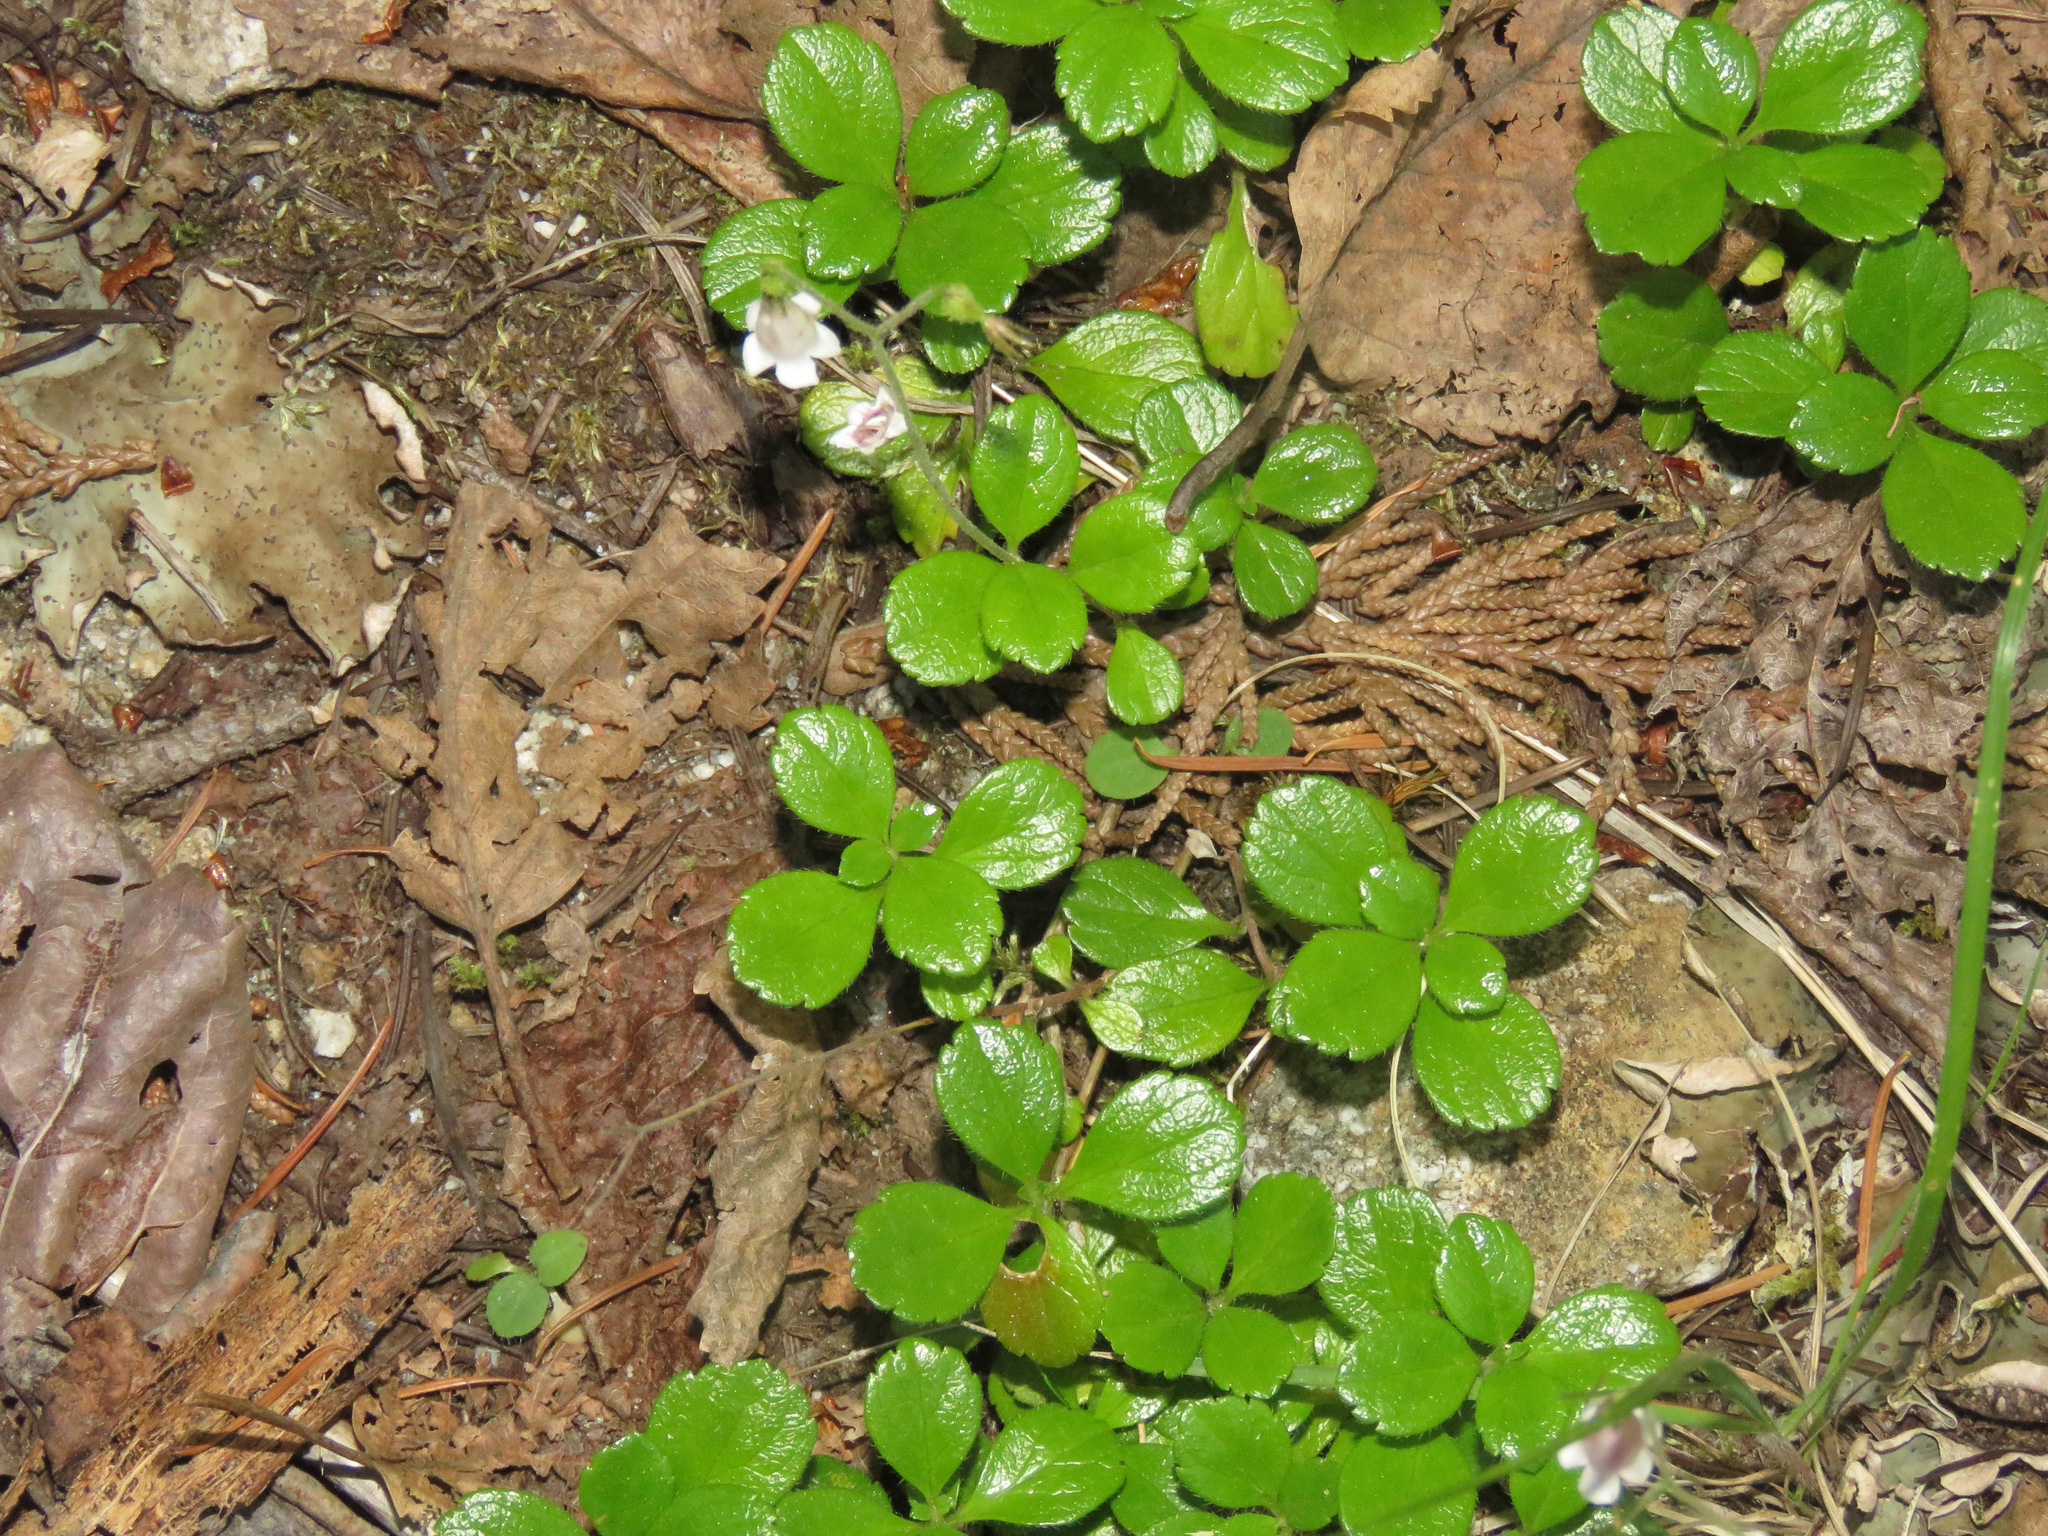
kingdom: Plantae
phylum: Tracheophyta
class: Magnoliopsida
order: Dipsacales
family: Caprifoliaceae
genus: Linnaea
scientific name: Linnaea borealis
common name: Twinflower
